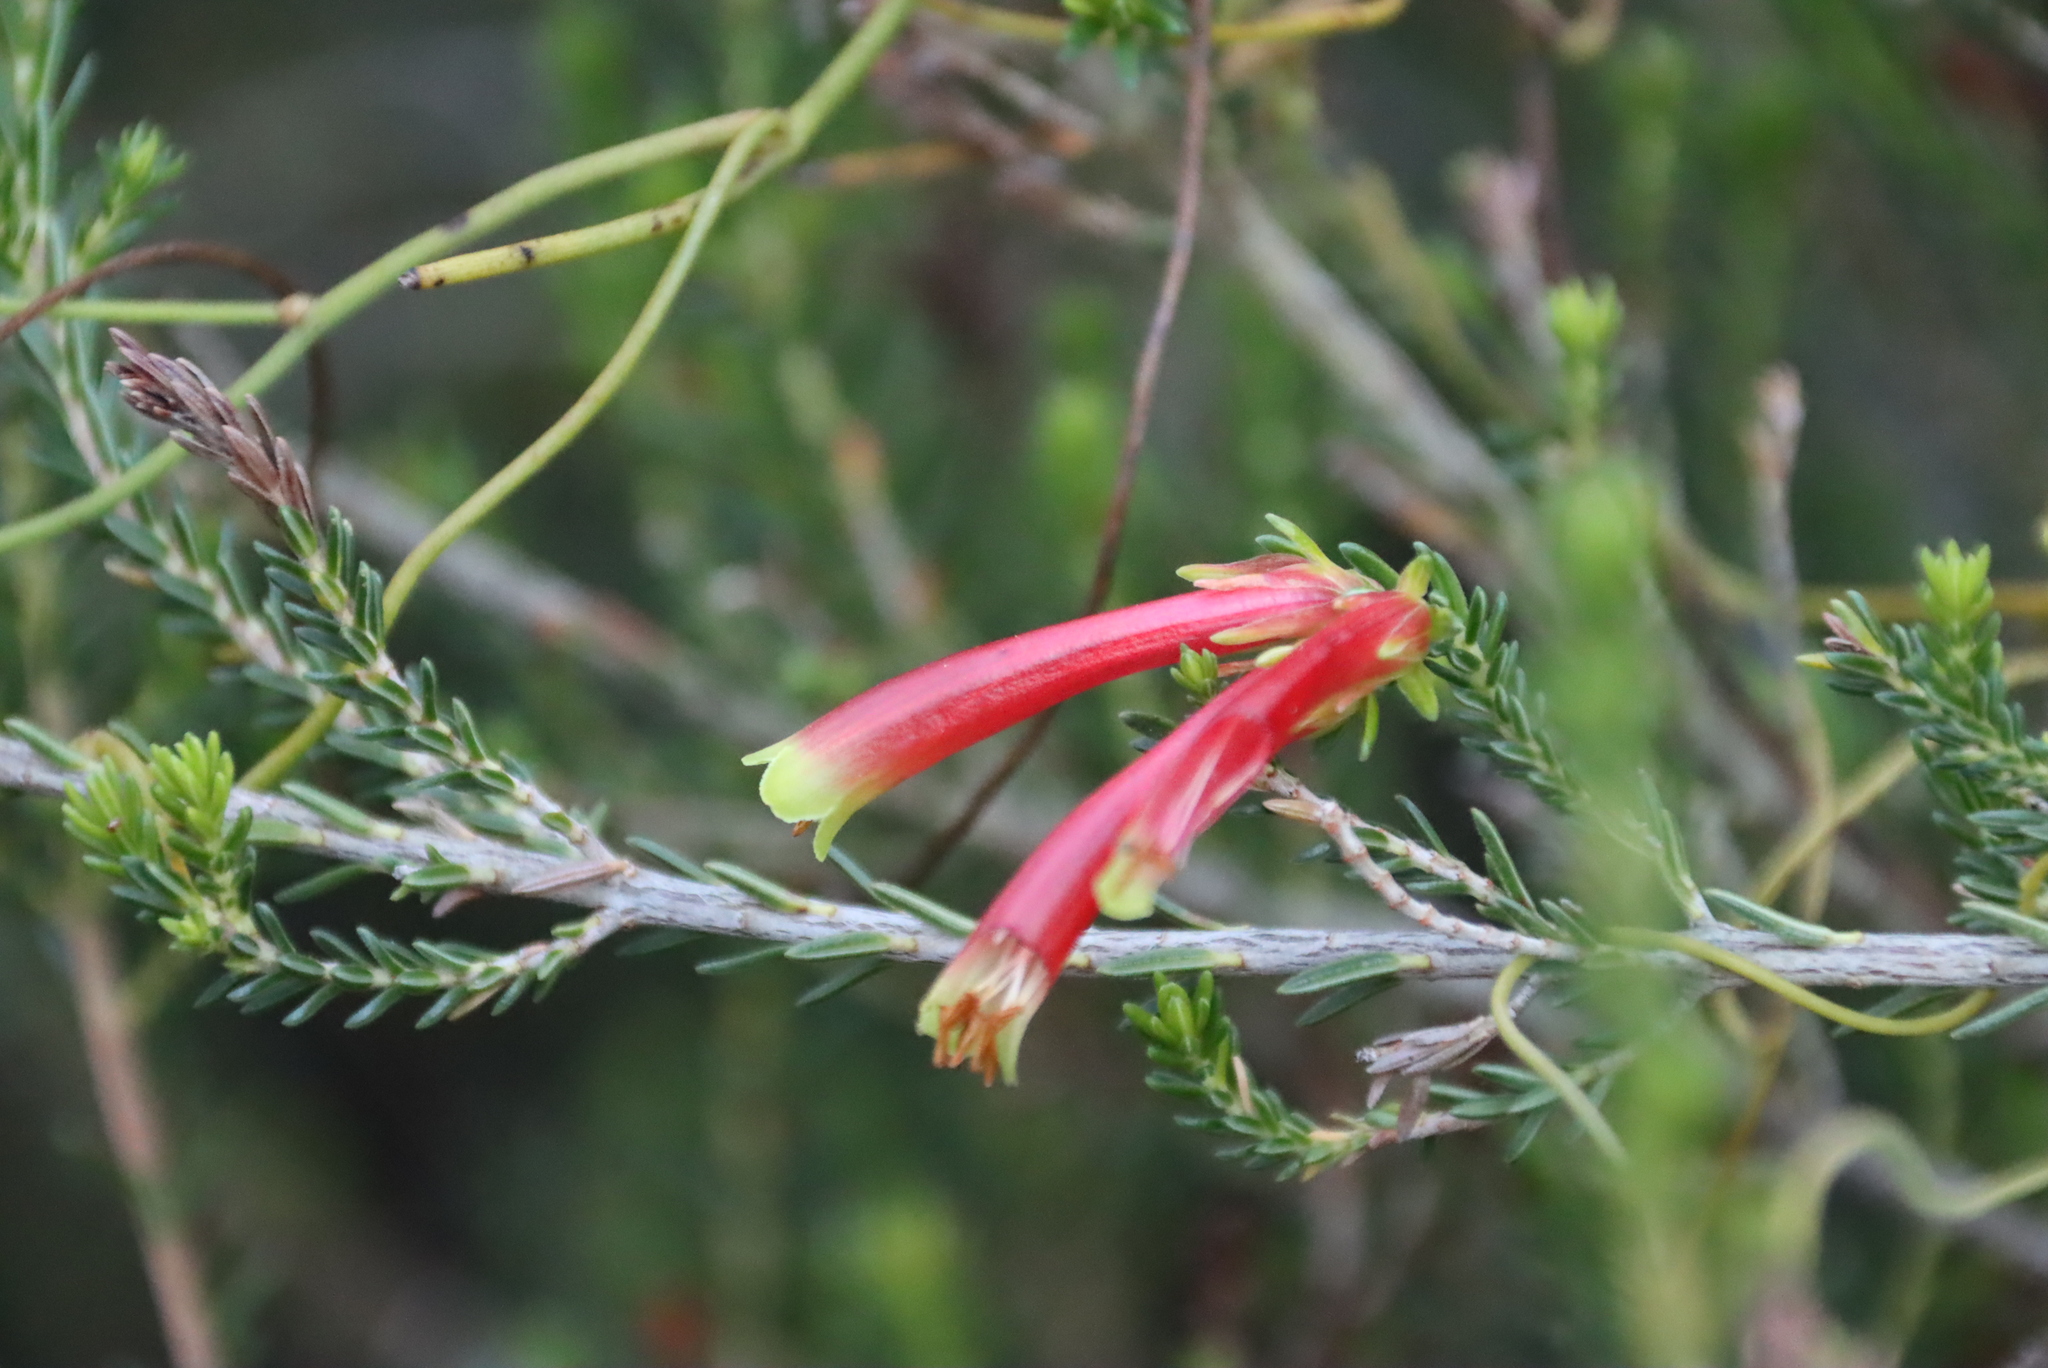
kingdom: Plantae
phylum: Tracheophyta
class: Magnoliopsida
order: Ericales
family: Ericaceae
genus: Erica
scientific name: Erica discolor
